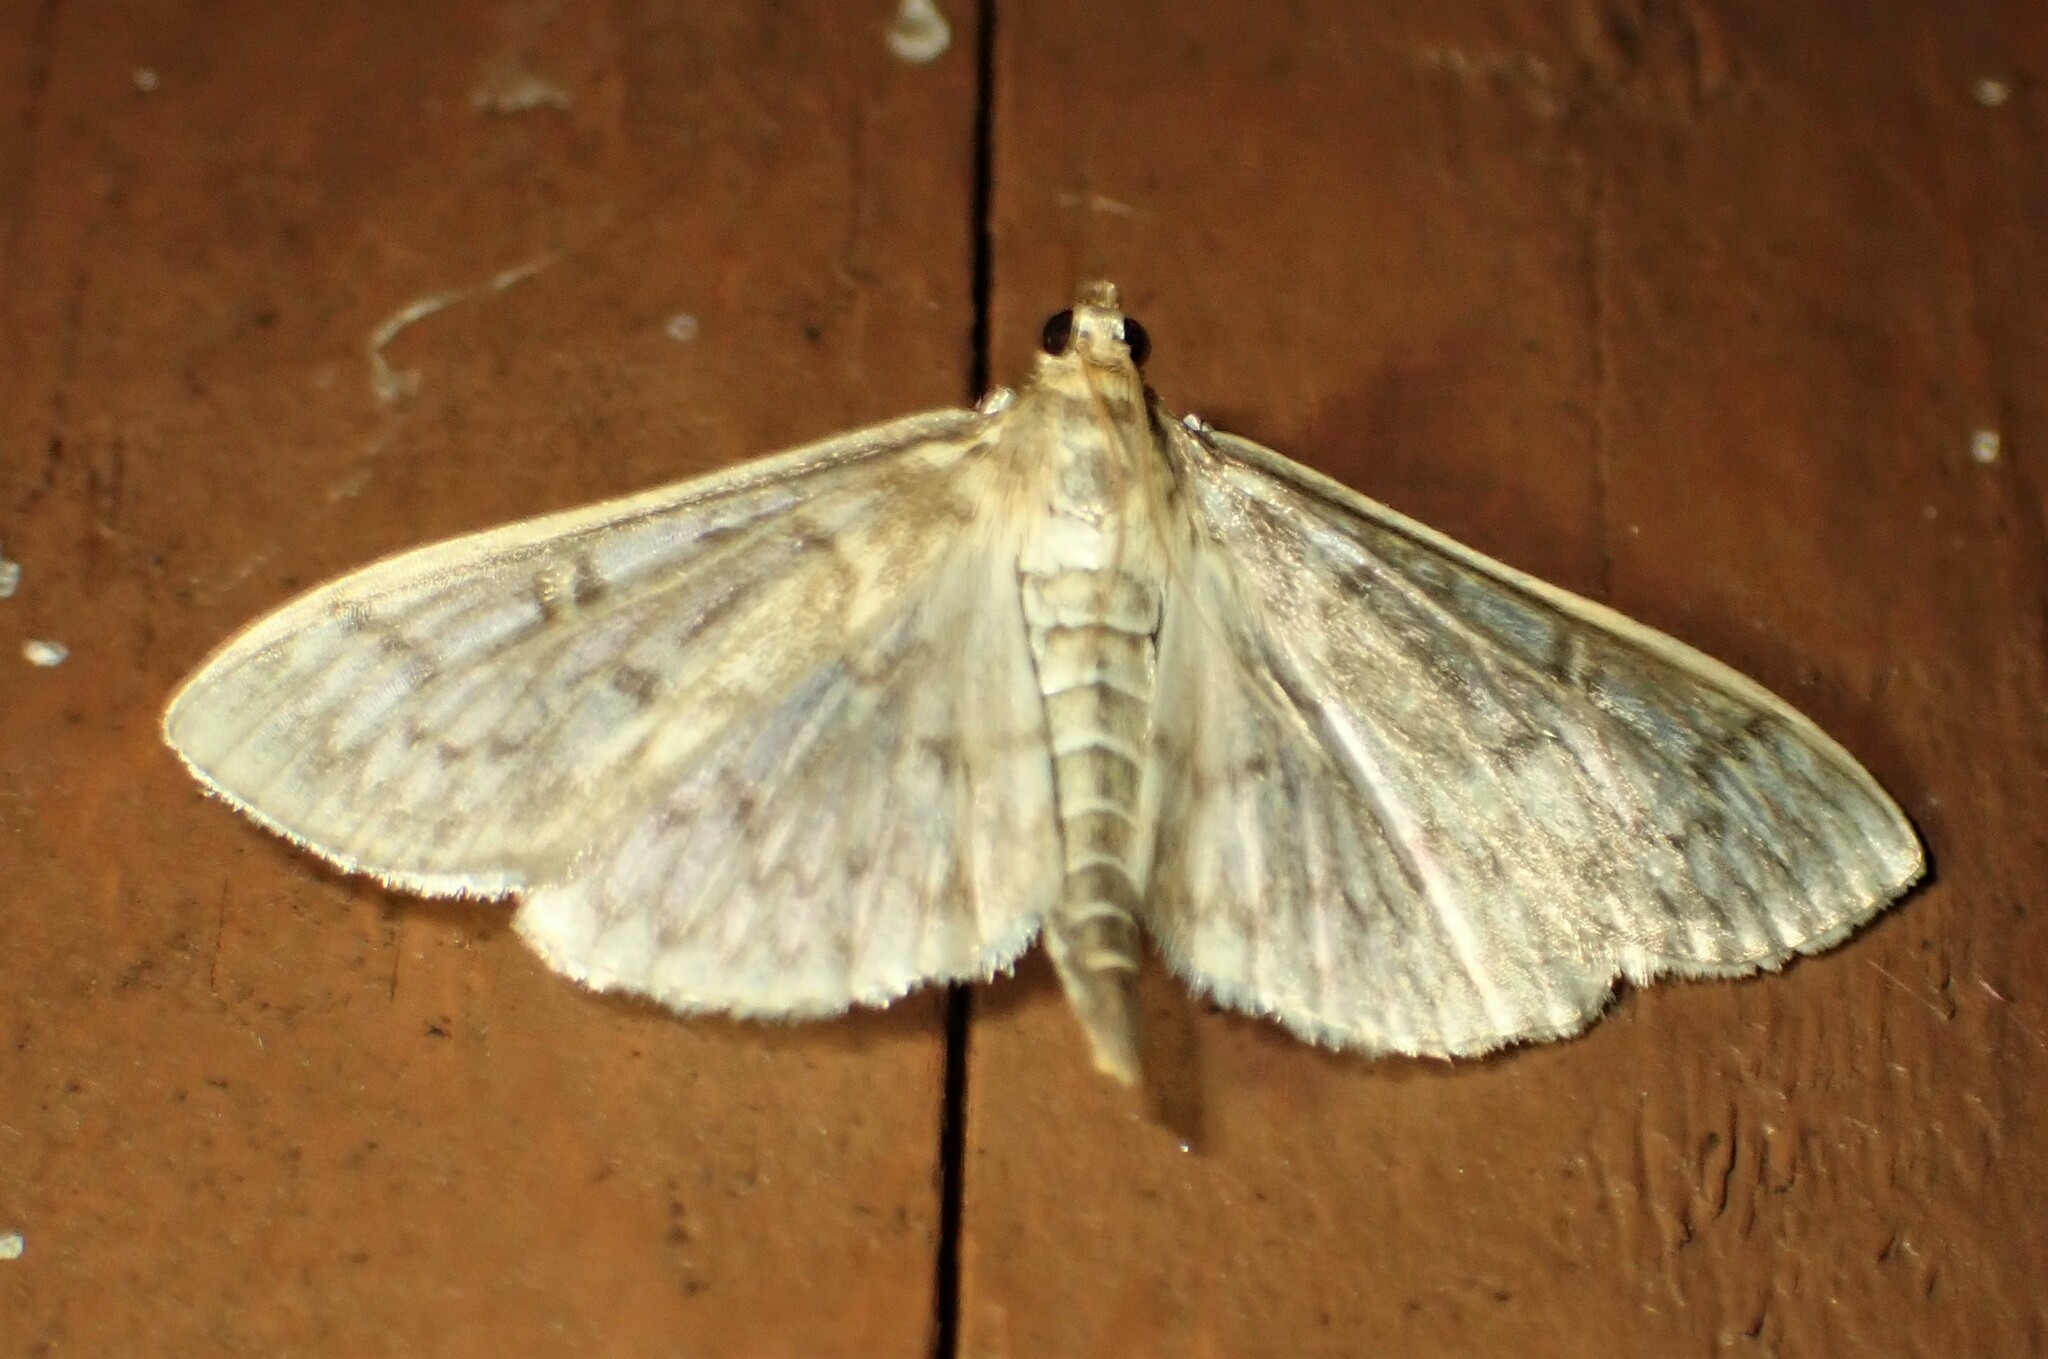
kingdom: Animalia
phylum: Arthropoda
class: Insecta
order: Lepidoptera
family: Crambidae
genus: Herpetogramma
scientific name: Herpetogramma aquilonalis
